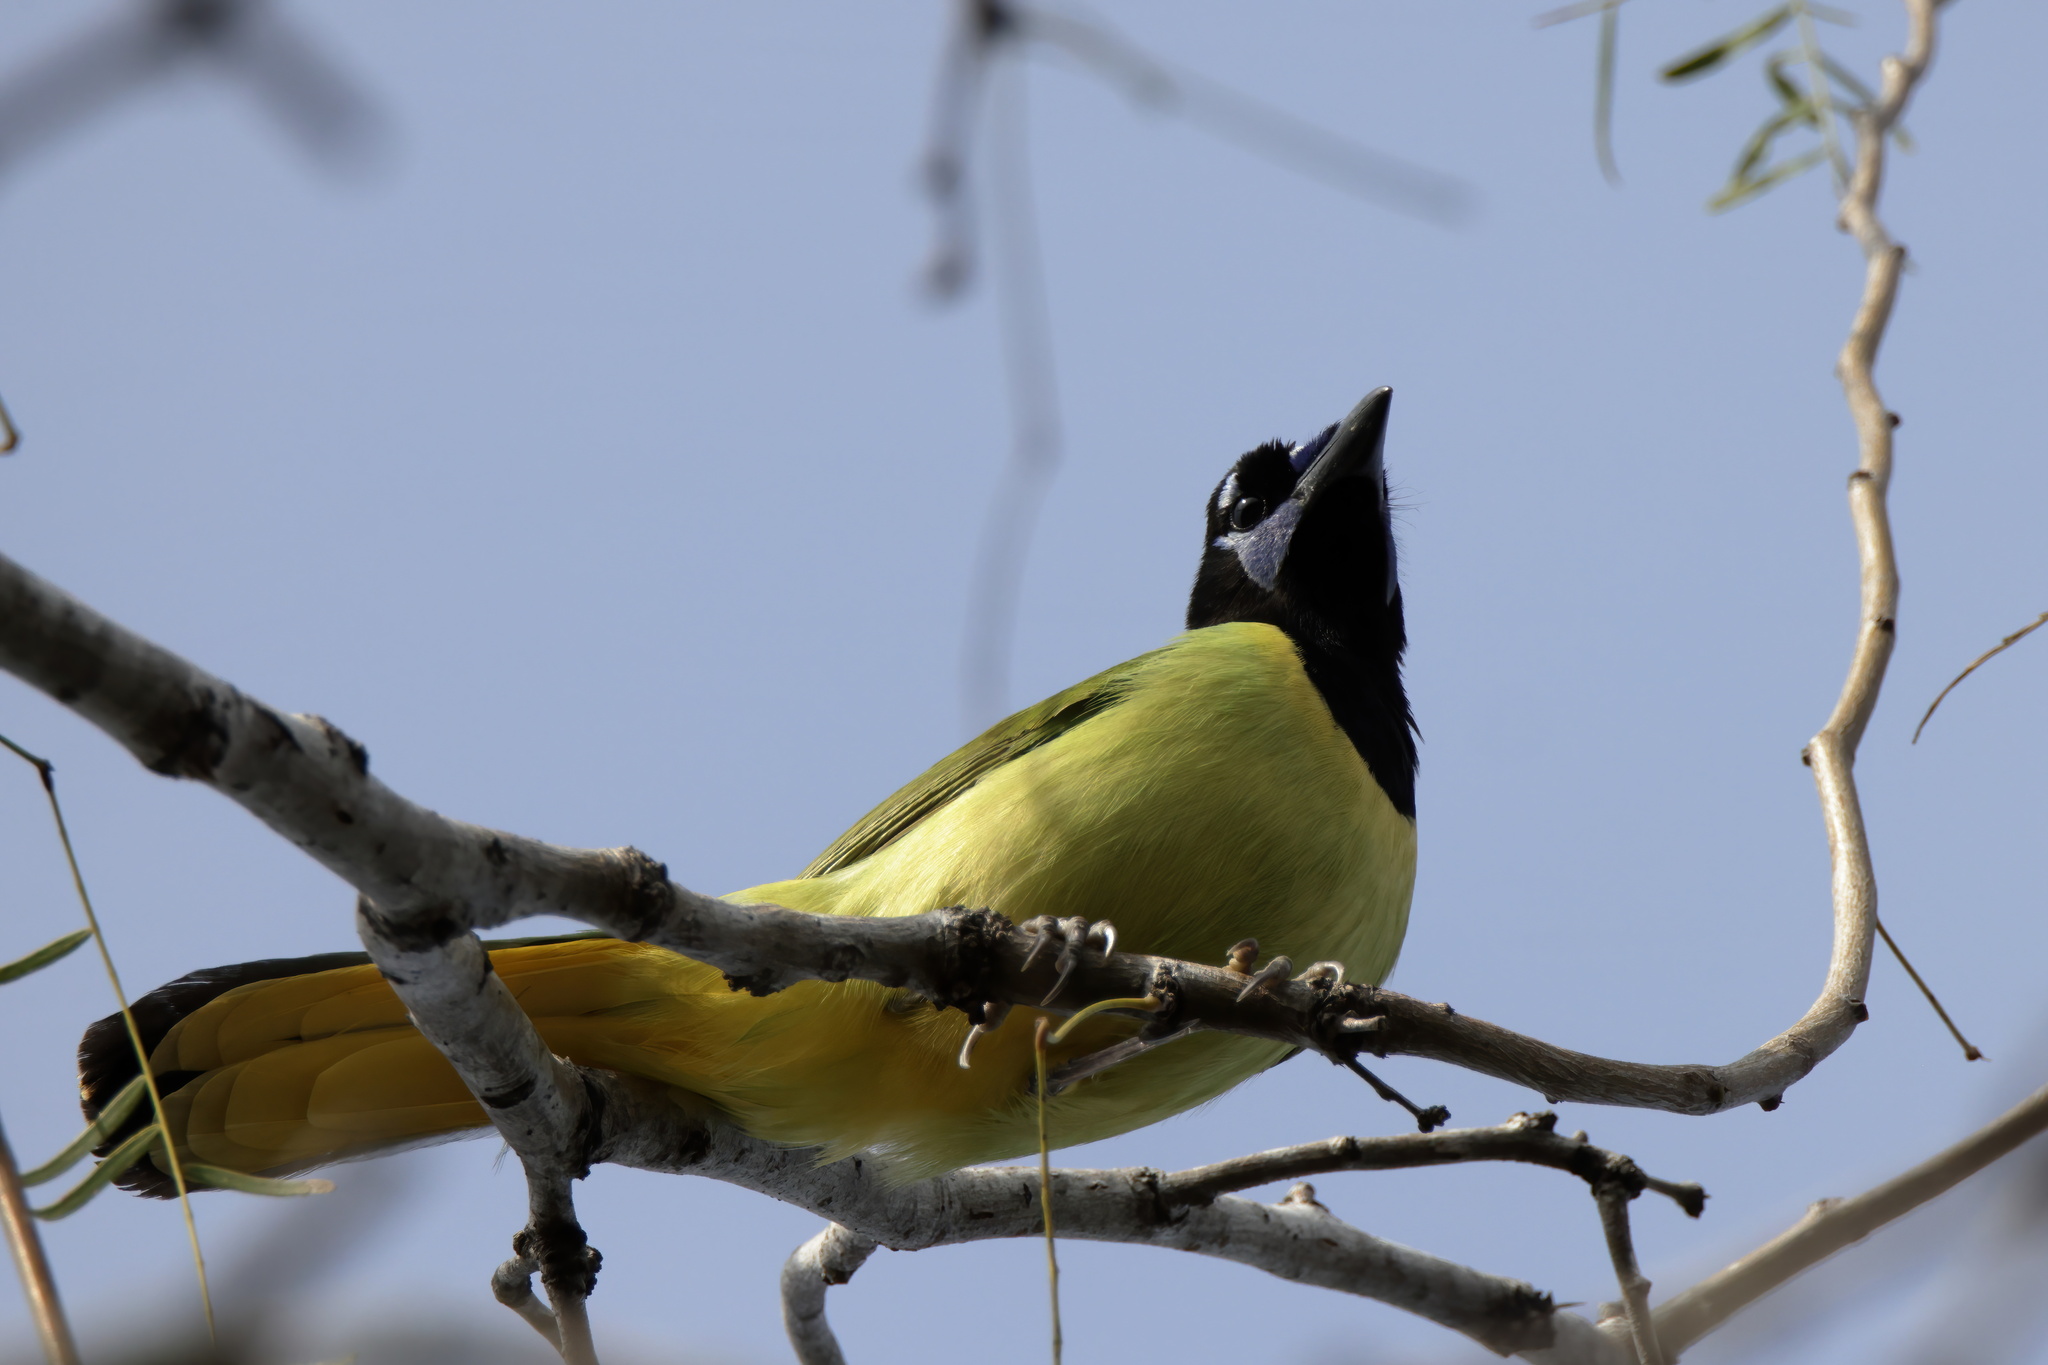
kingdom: Animalia
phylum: Chordata
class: Aves
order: Passeriformes
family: Corvidae
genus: Cyanocorax
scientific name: Cyanocorax yncas
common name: Green jay
